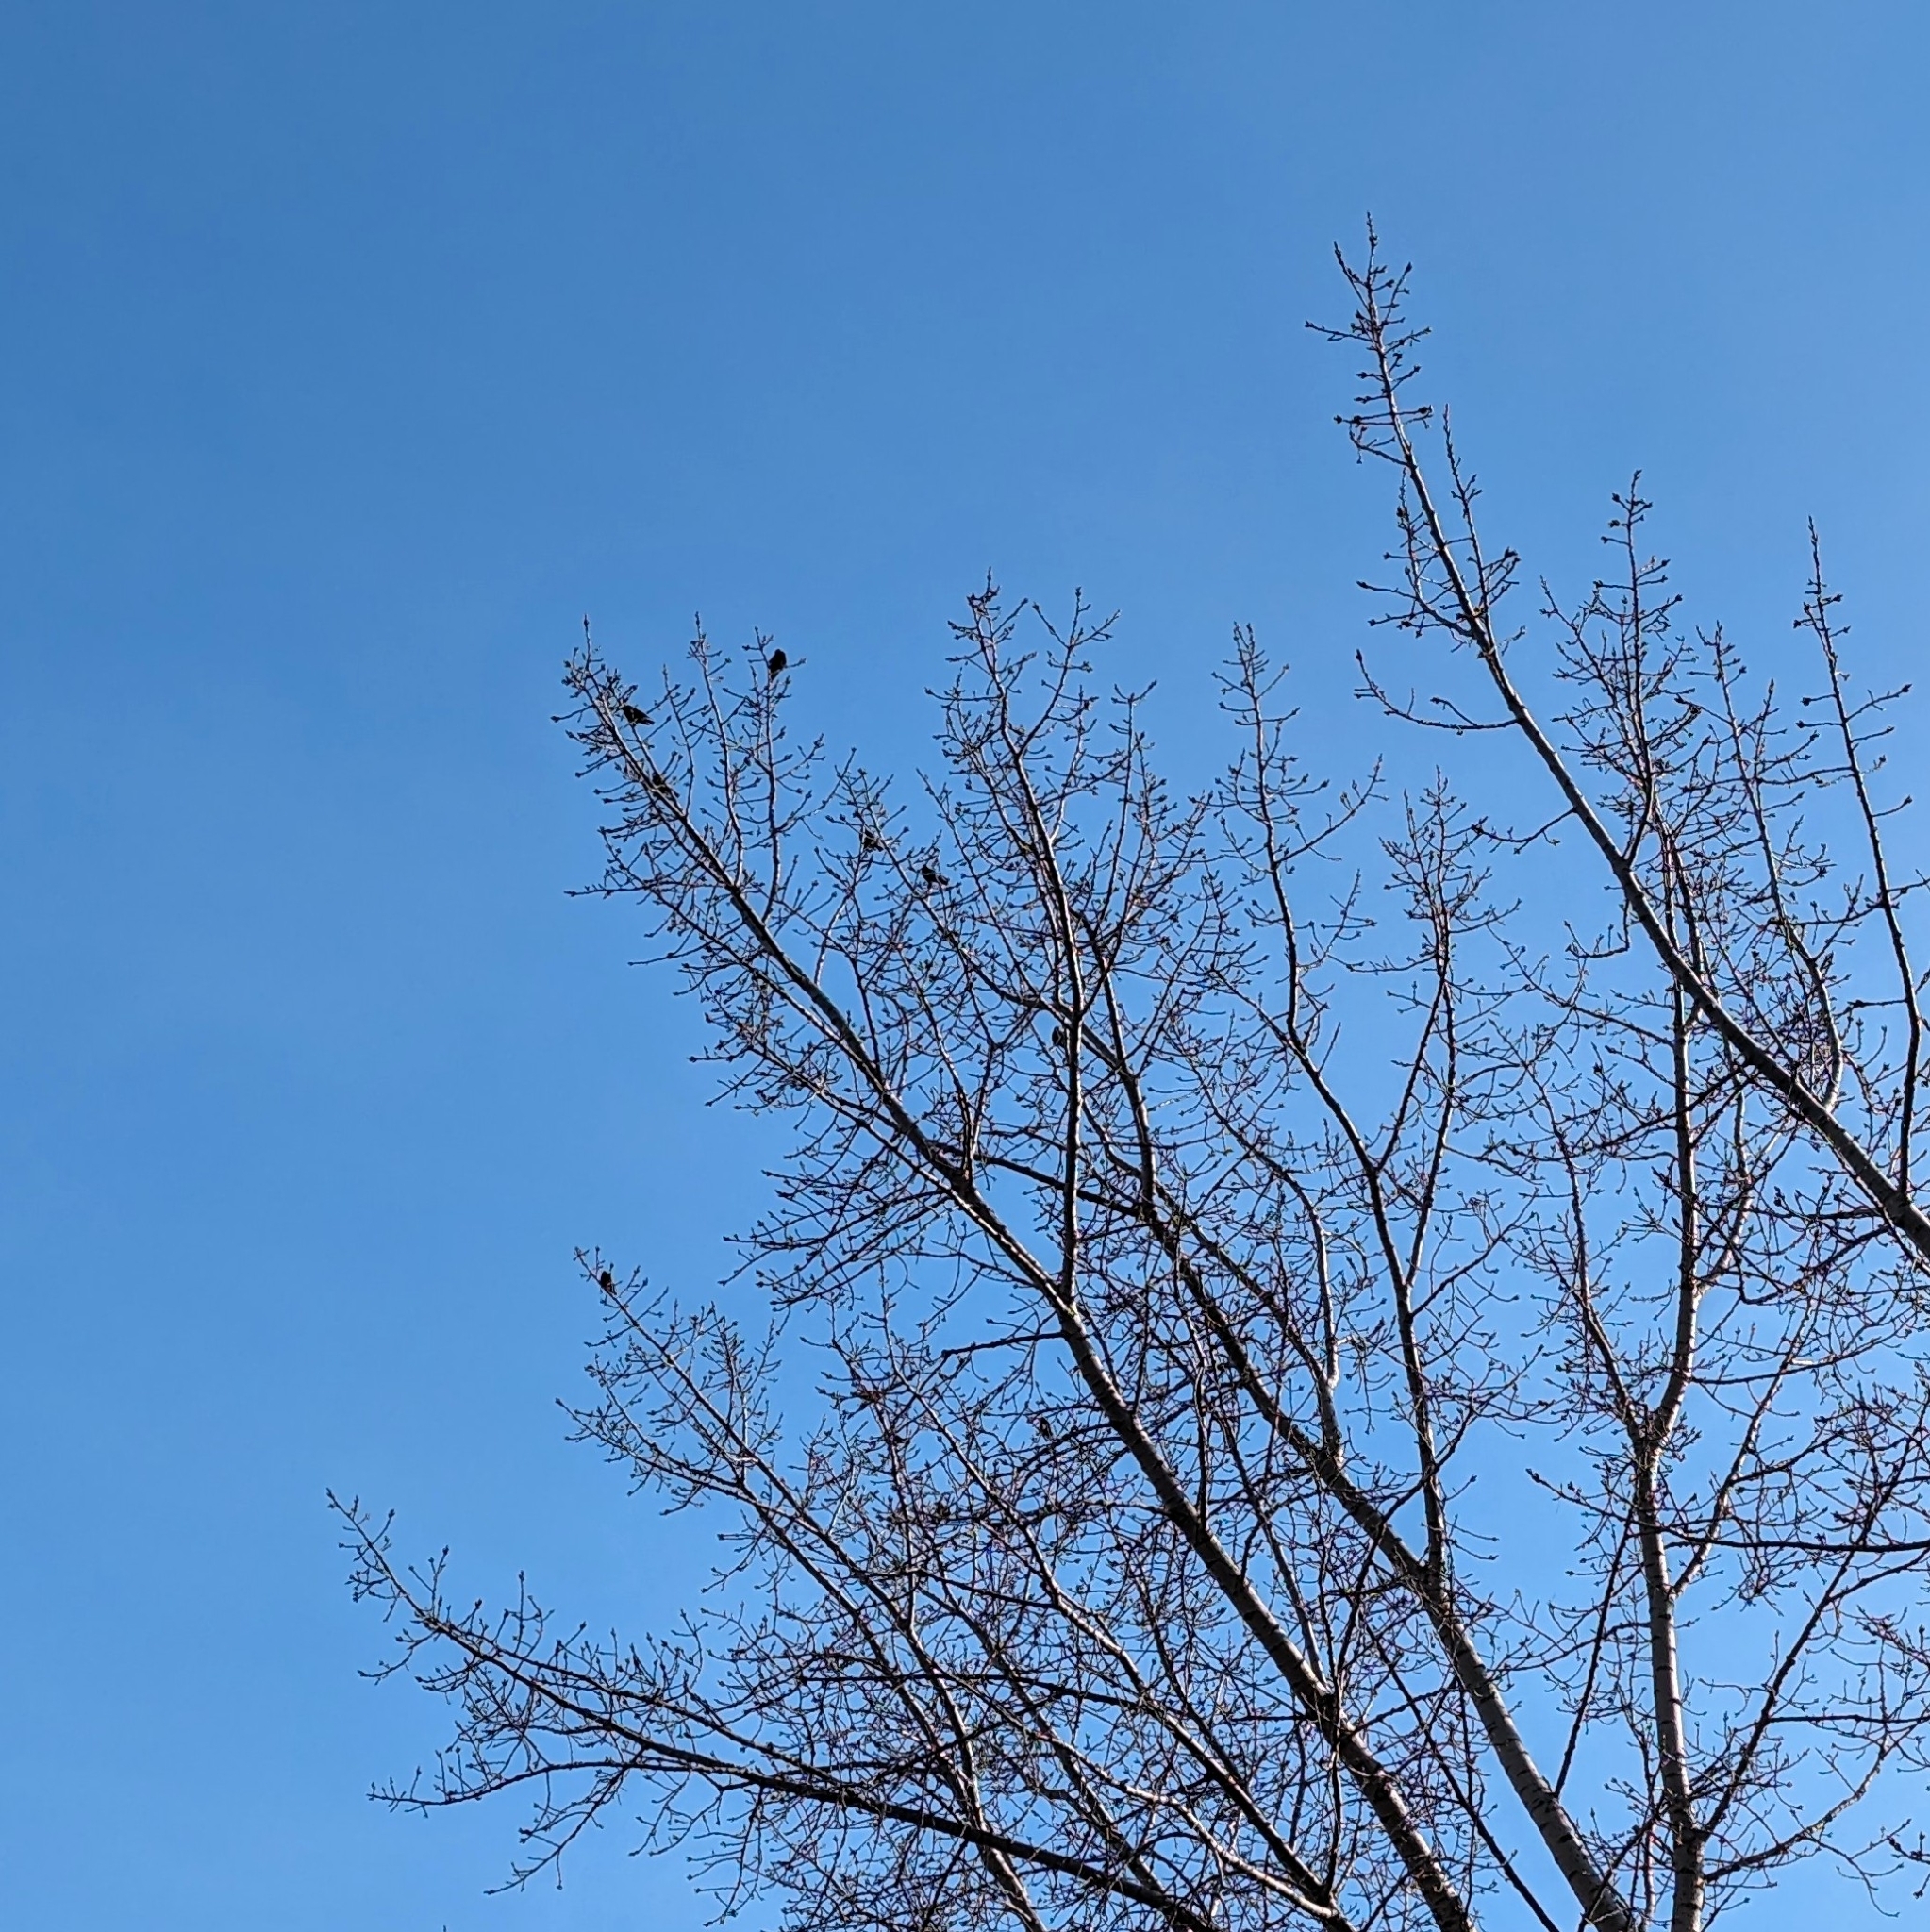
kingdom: Animalia
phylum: Chordata
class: Aves
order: Passeriformes
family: Sturnidae
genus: Sturnus
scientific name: Sturnus vulgaris
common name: Common starling
